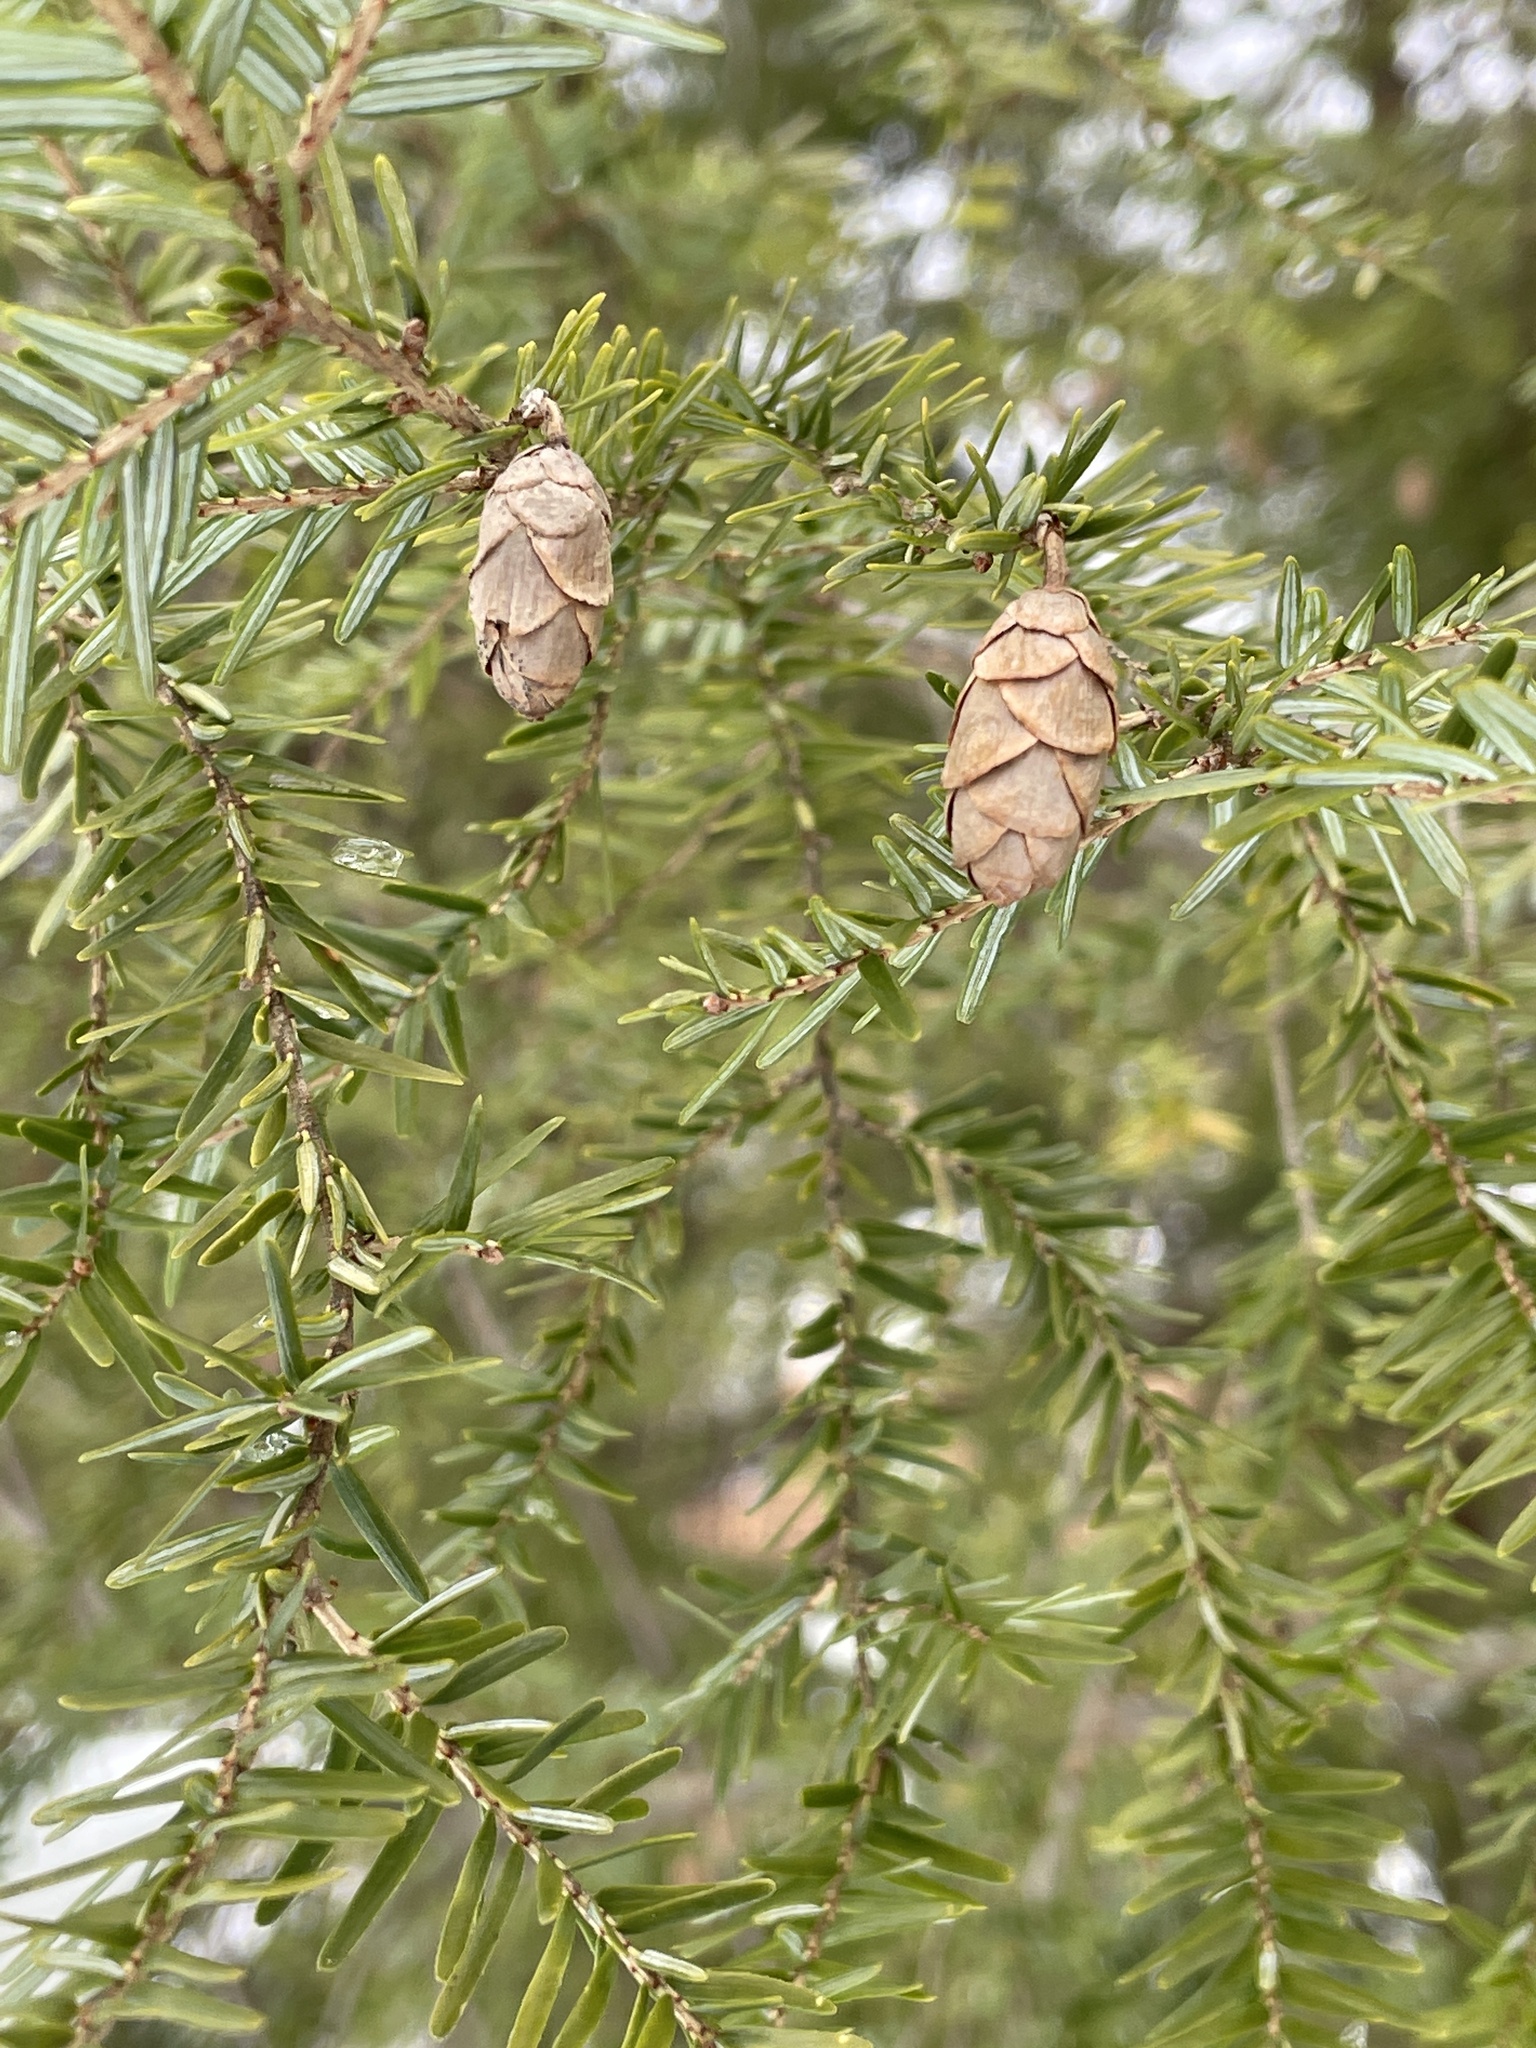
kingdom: Plantae
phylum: Tracheophyta
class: Pinopsida
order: Pinales
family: Pinaceae
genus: Tsuga
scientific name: Tsuga canadensis
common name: Eastern hemlock
